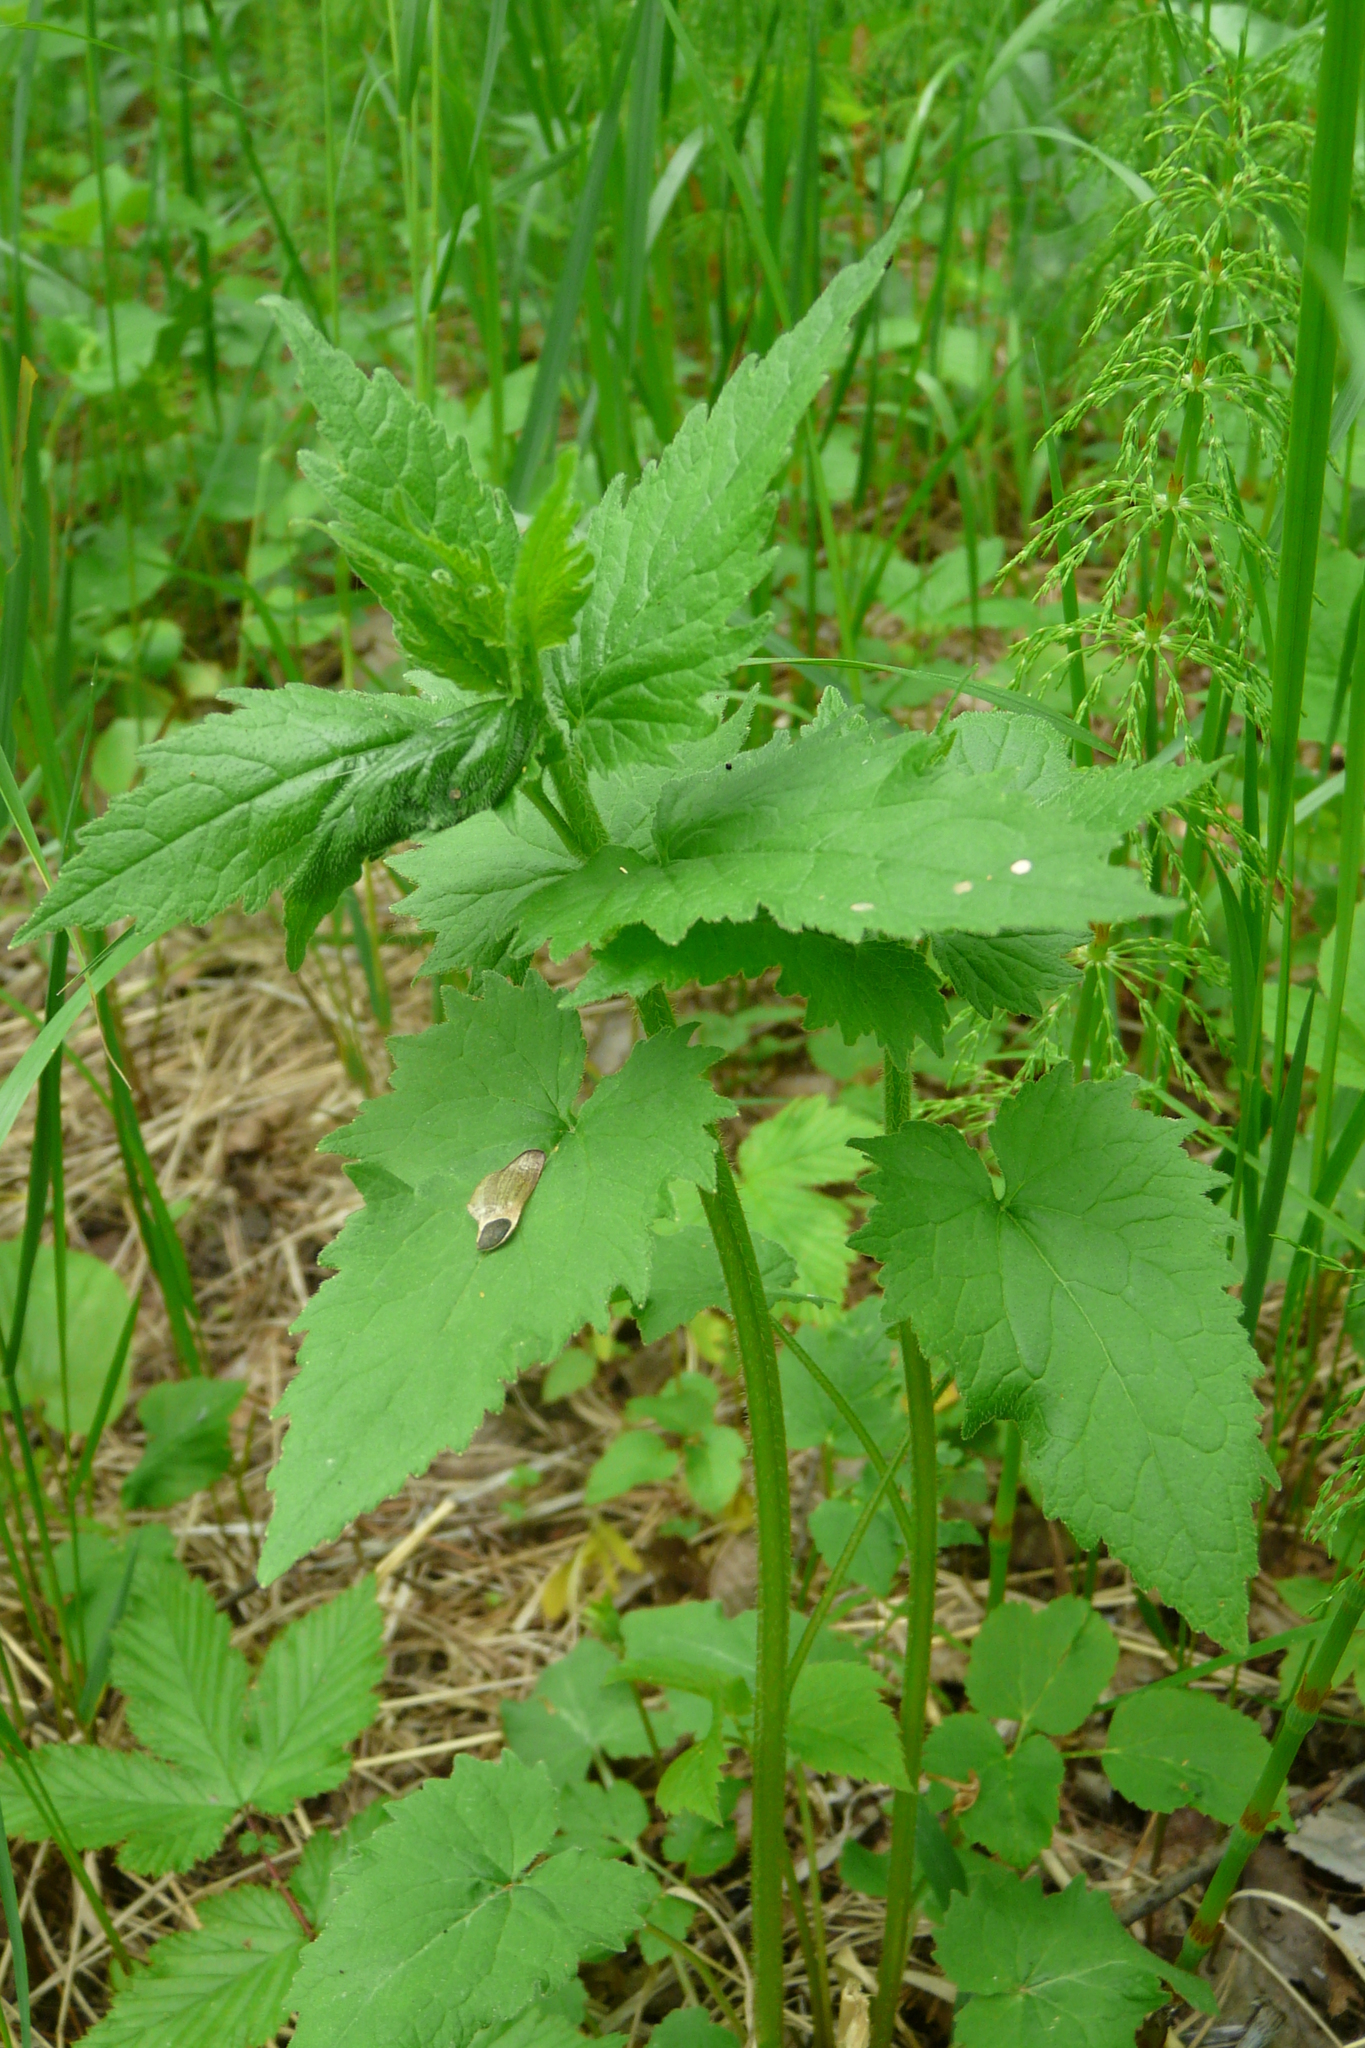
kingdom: Plantae
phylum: Tracheophyta
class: Magnoliopsida
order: Asterales
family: Campanulaceae
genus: Campanula
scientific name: Campanula trachelium
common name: Nettle-leaved bellflower
